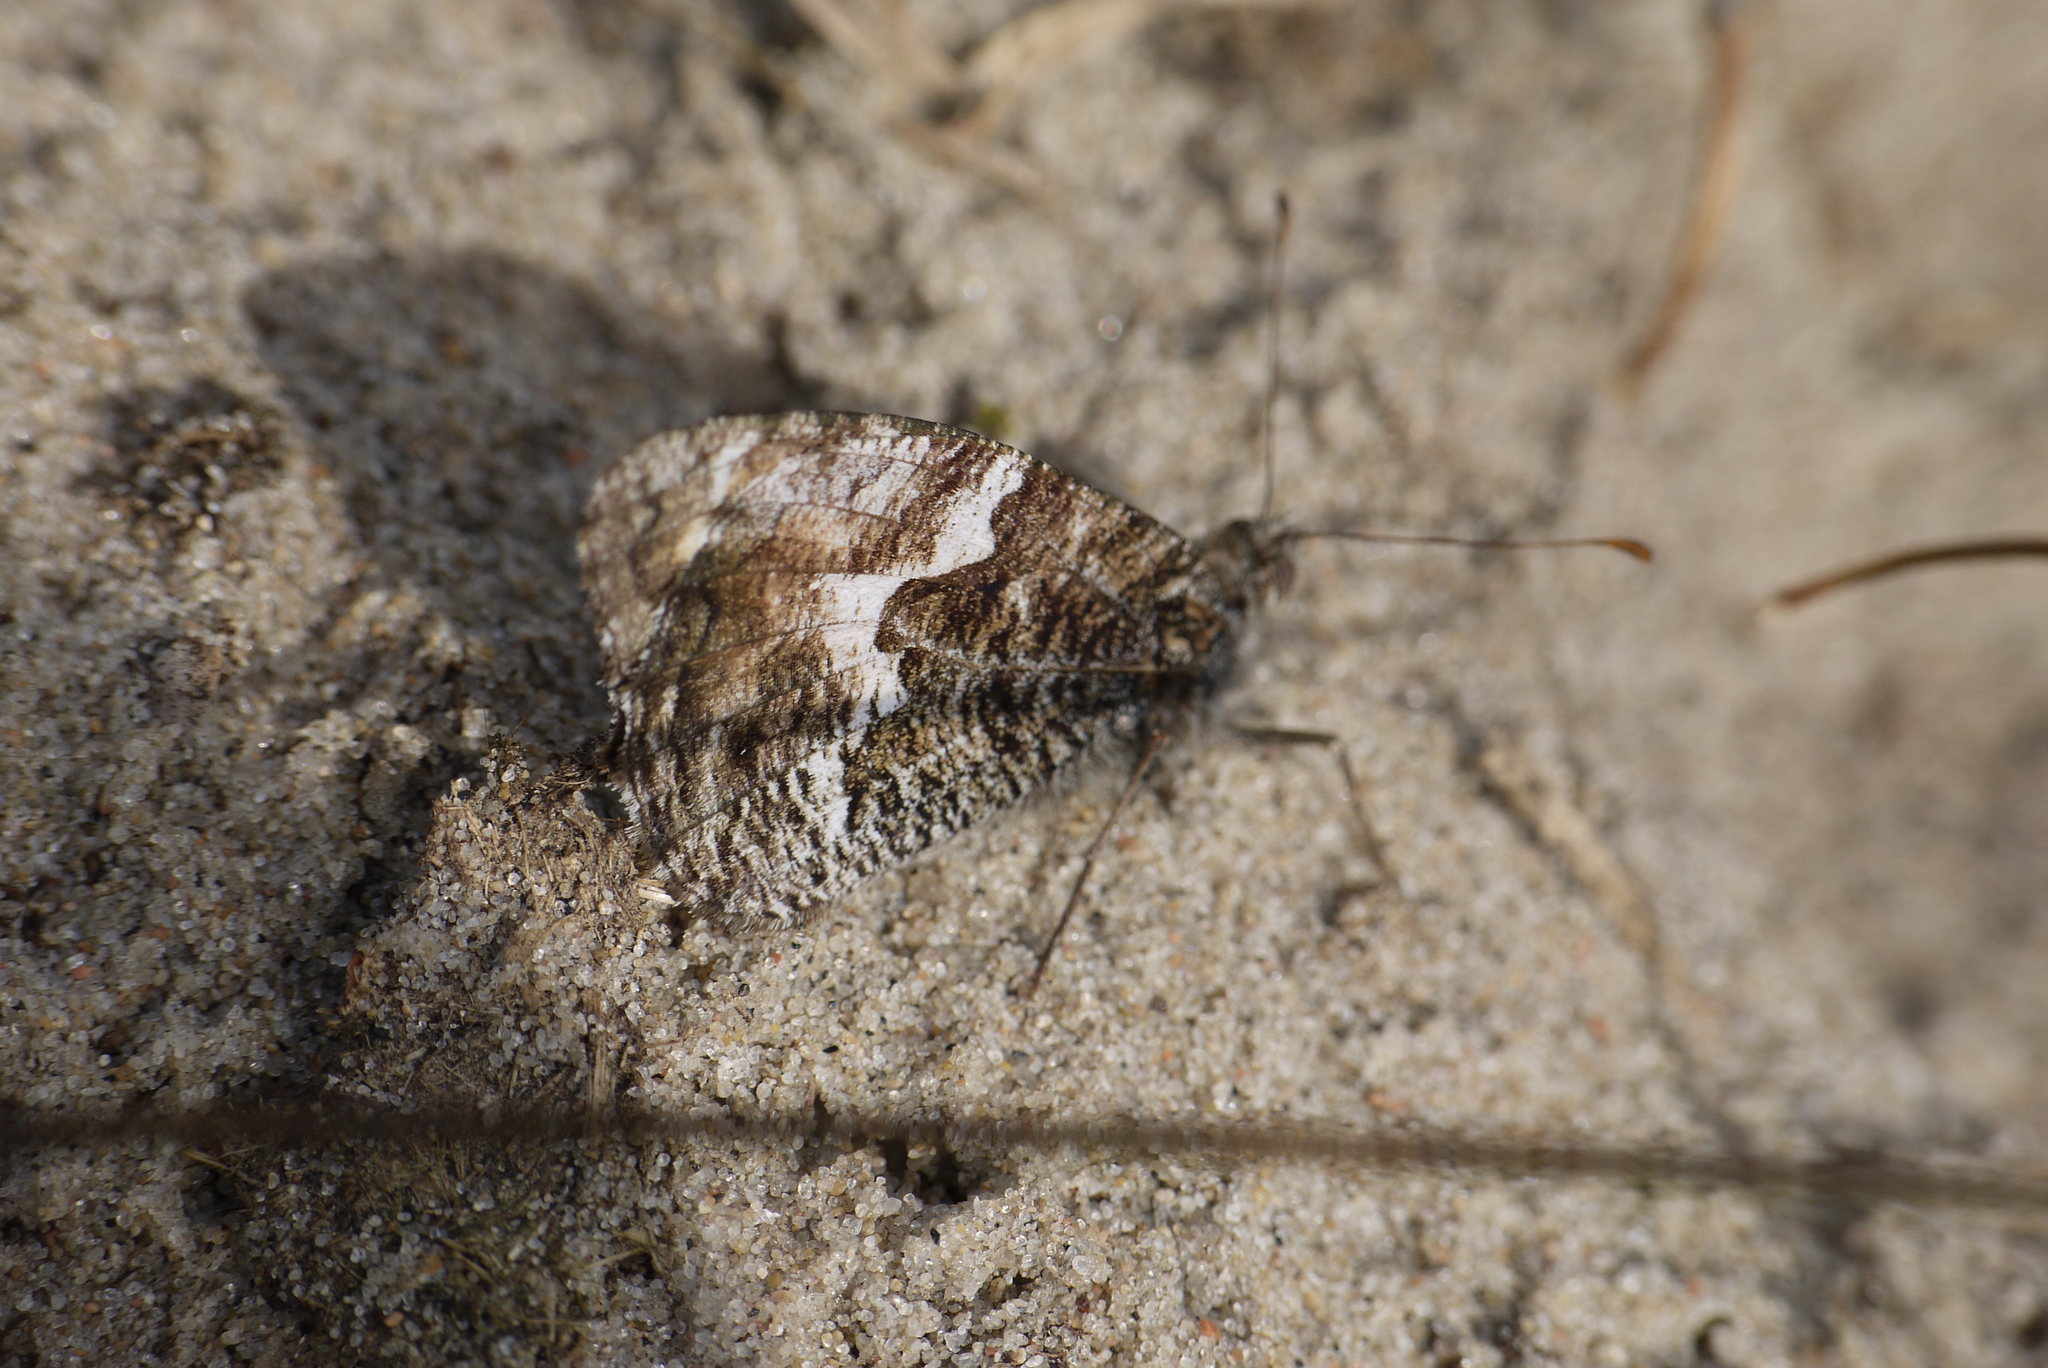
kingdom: Animalia
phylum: Arthropoda
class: Insecta
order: Lepidoptera
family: Nymphalidae
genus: Hipparchia
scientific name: Hipparchia semele
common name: Grayling
